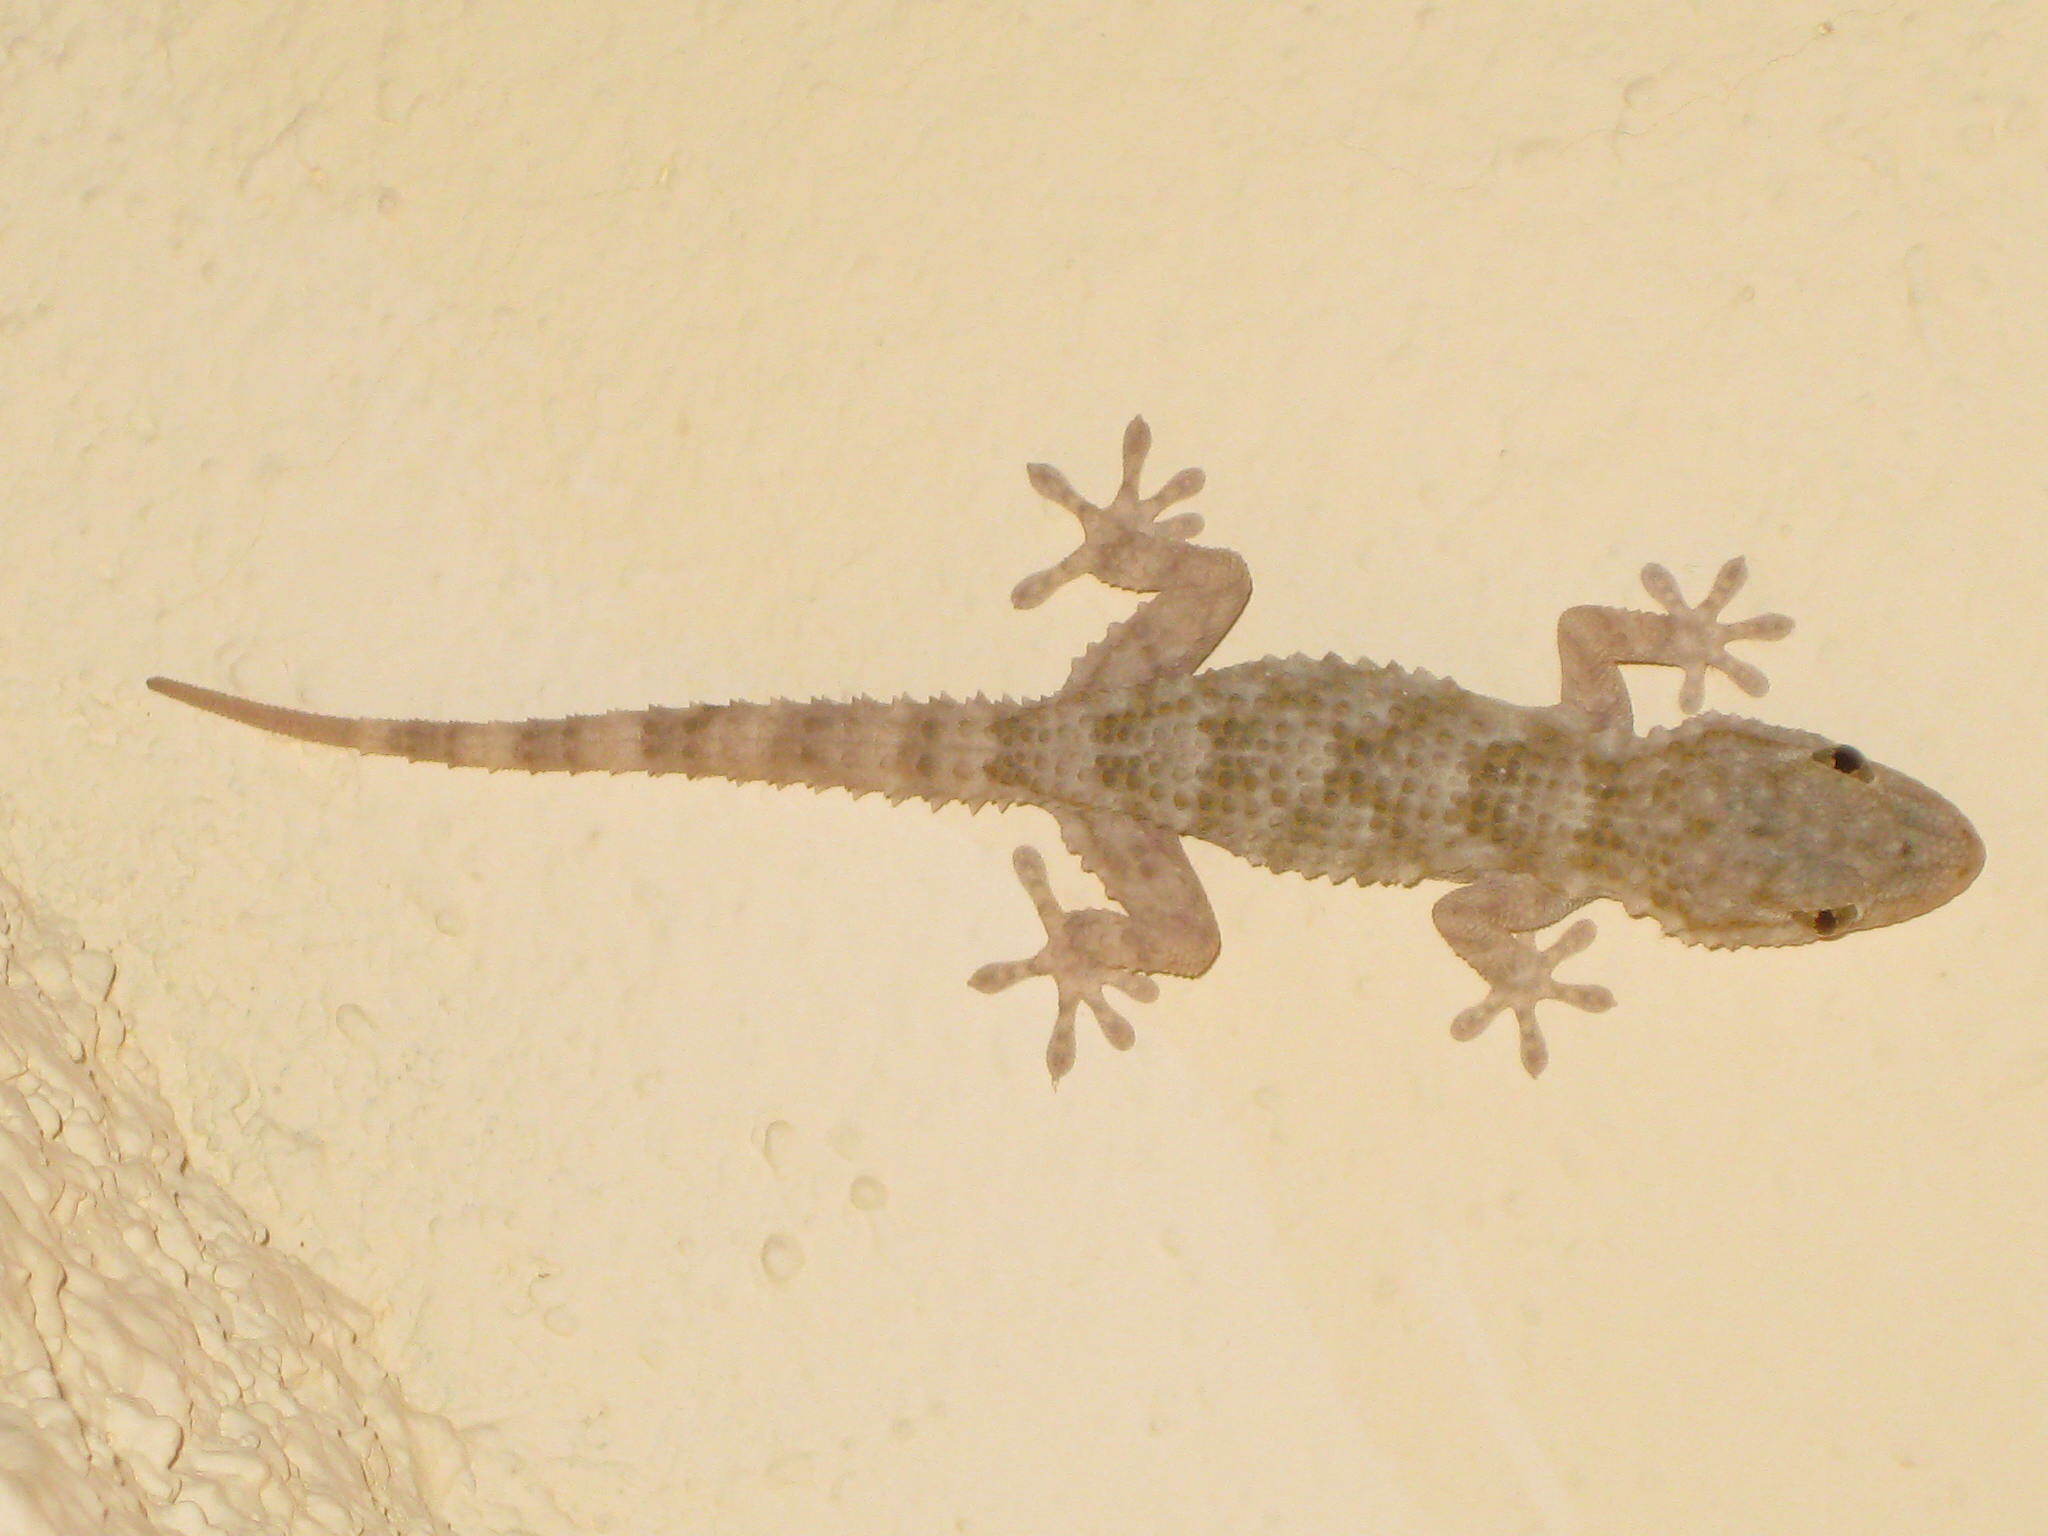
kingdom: Animalia
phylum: Chordata
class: Squamata
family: Phyllodactylidae
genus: Tarentola
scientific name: Tarentola mauritanica
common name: Moorish gecko
